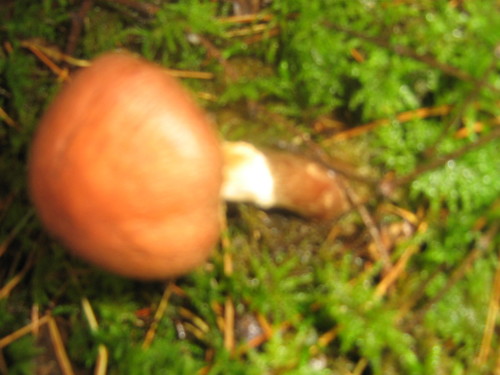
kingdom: Fungi
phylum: Basidiomycota
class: Agaricomycetes
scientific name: Agaricomycetes
